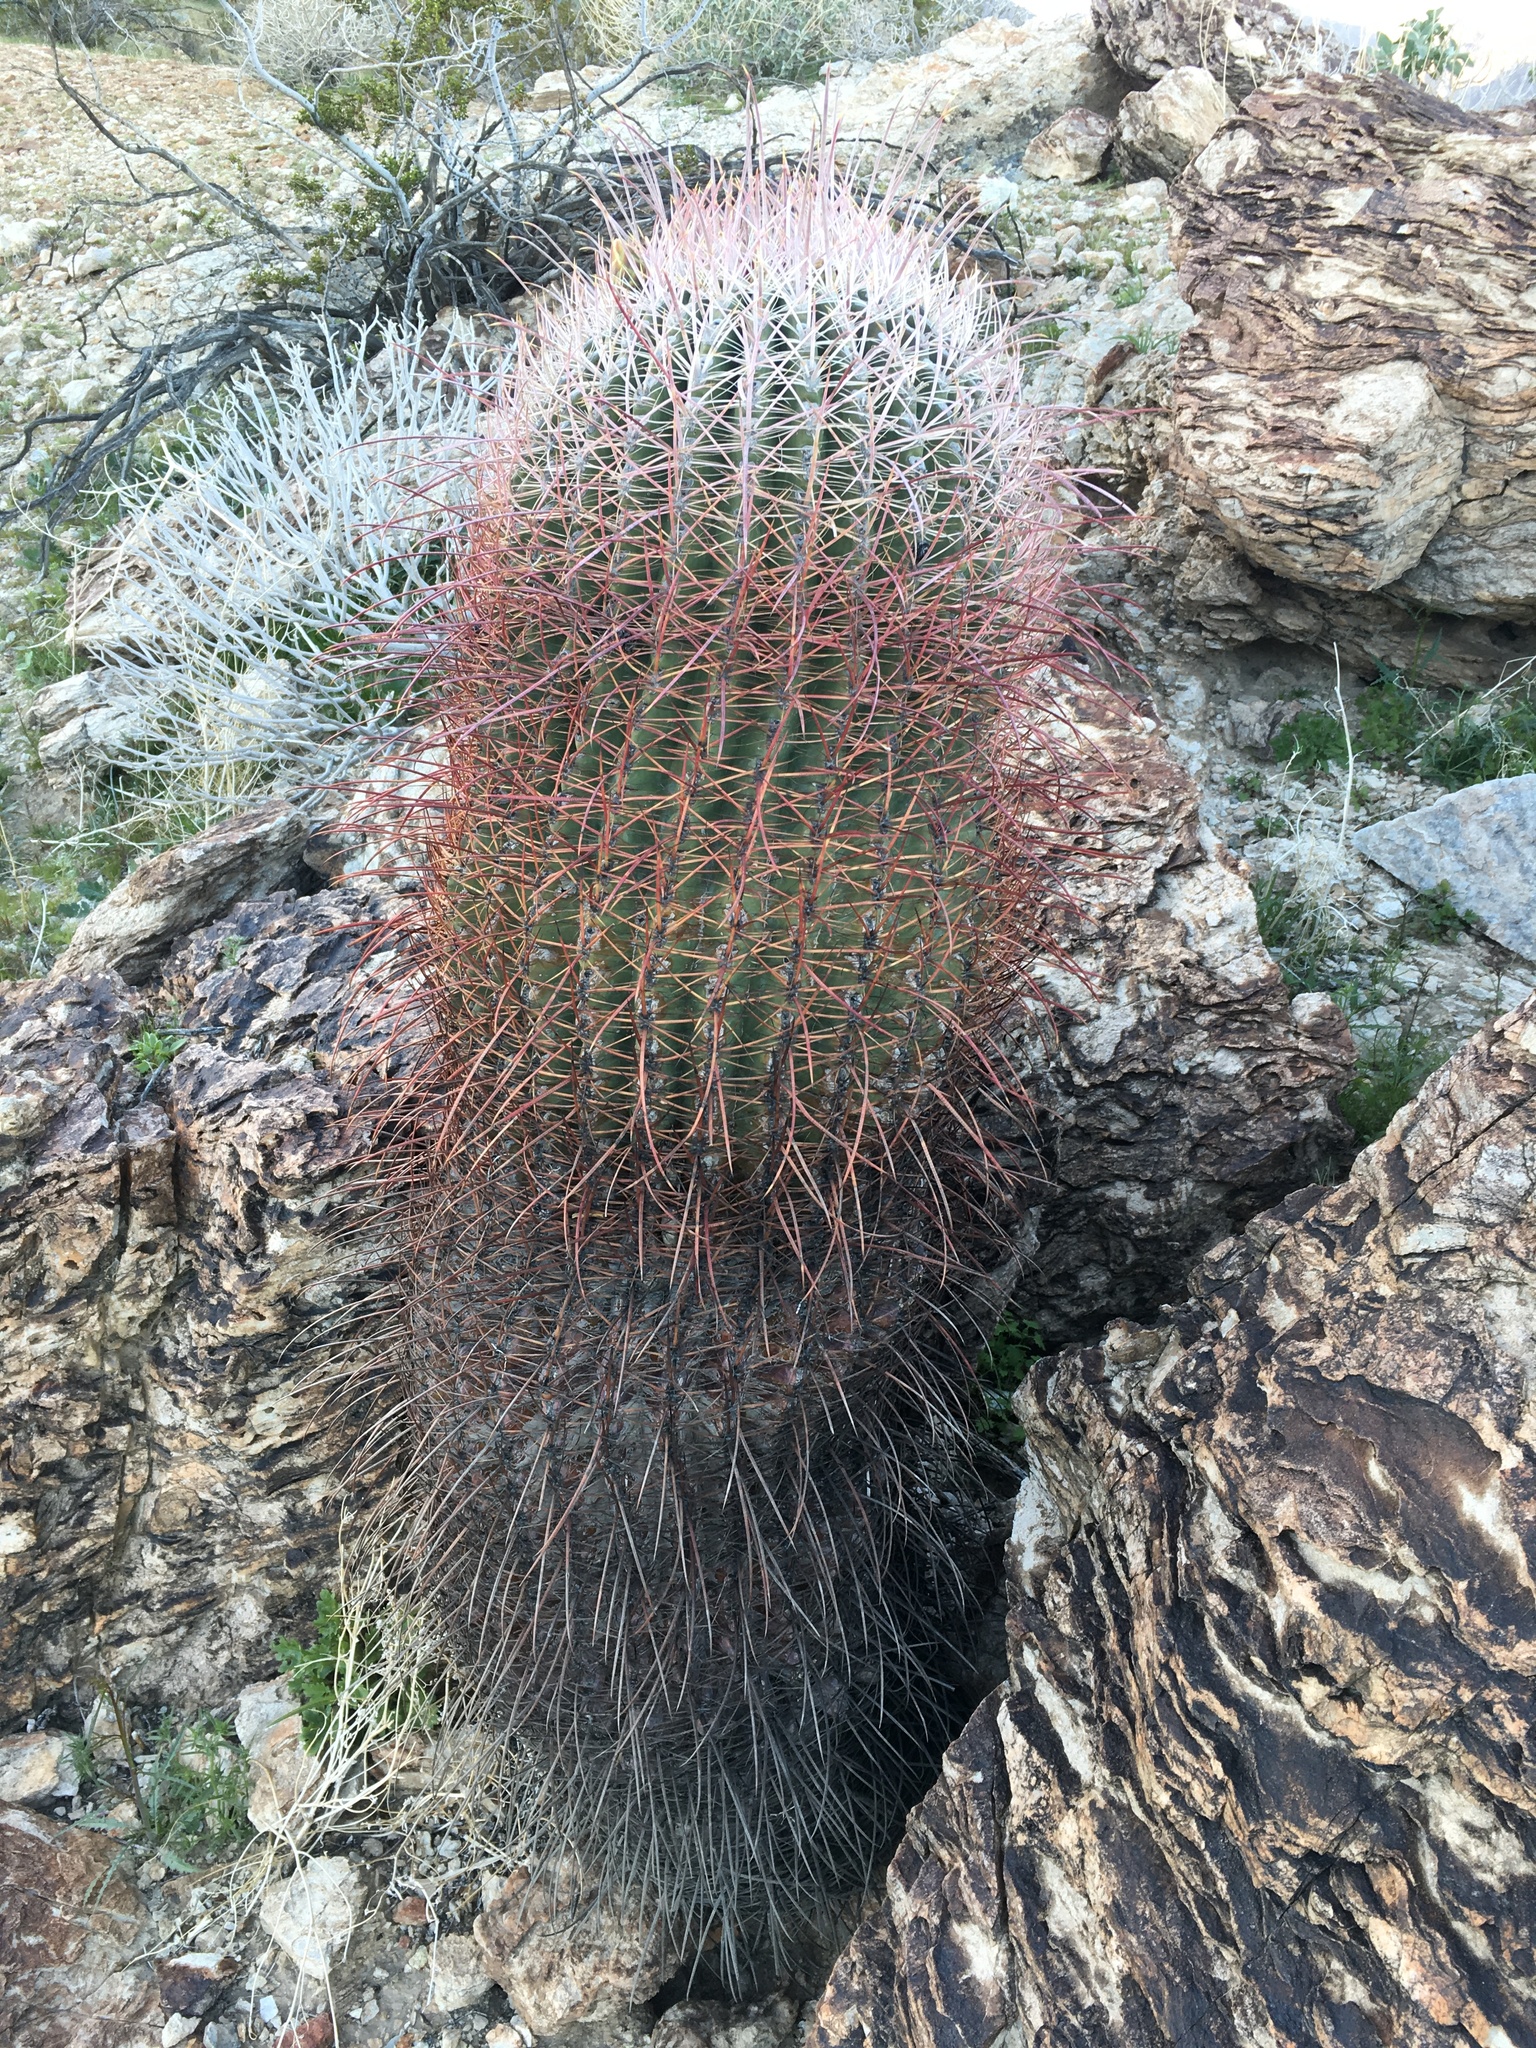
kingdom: Plantae
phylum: Tracheophyta
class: Magnoliopsida
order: Caryophyllales
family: Cactaceae
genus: Ferocactus
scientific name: Ferocactus cylindraceus
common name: California barrel cactus
